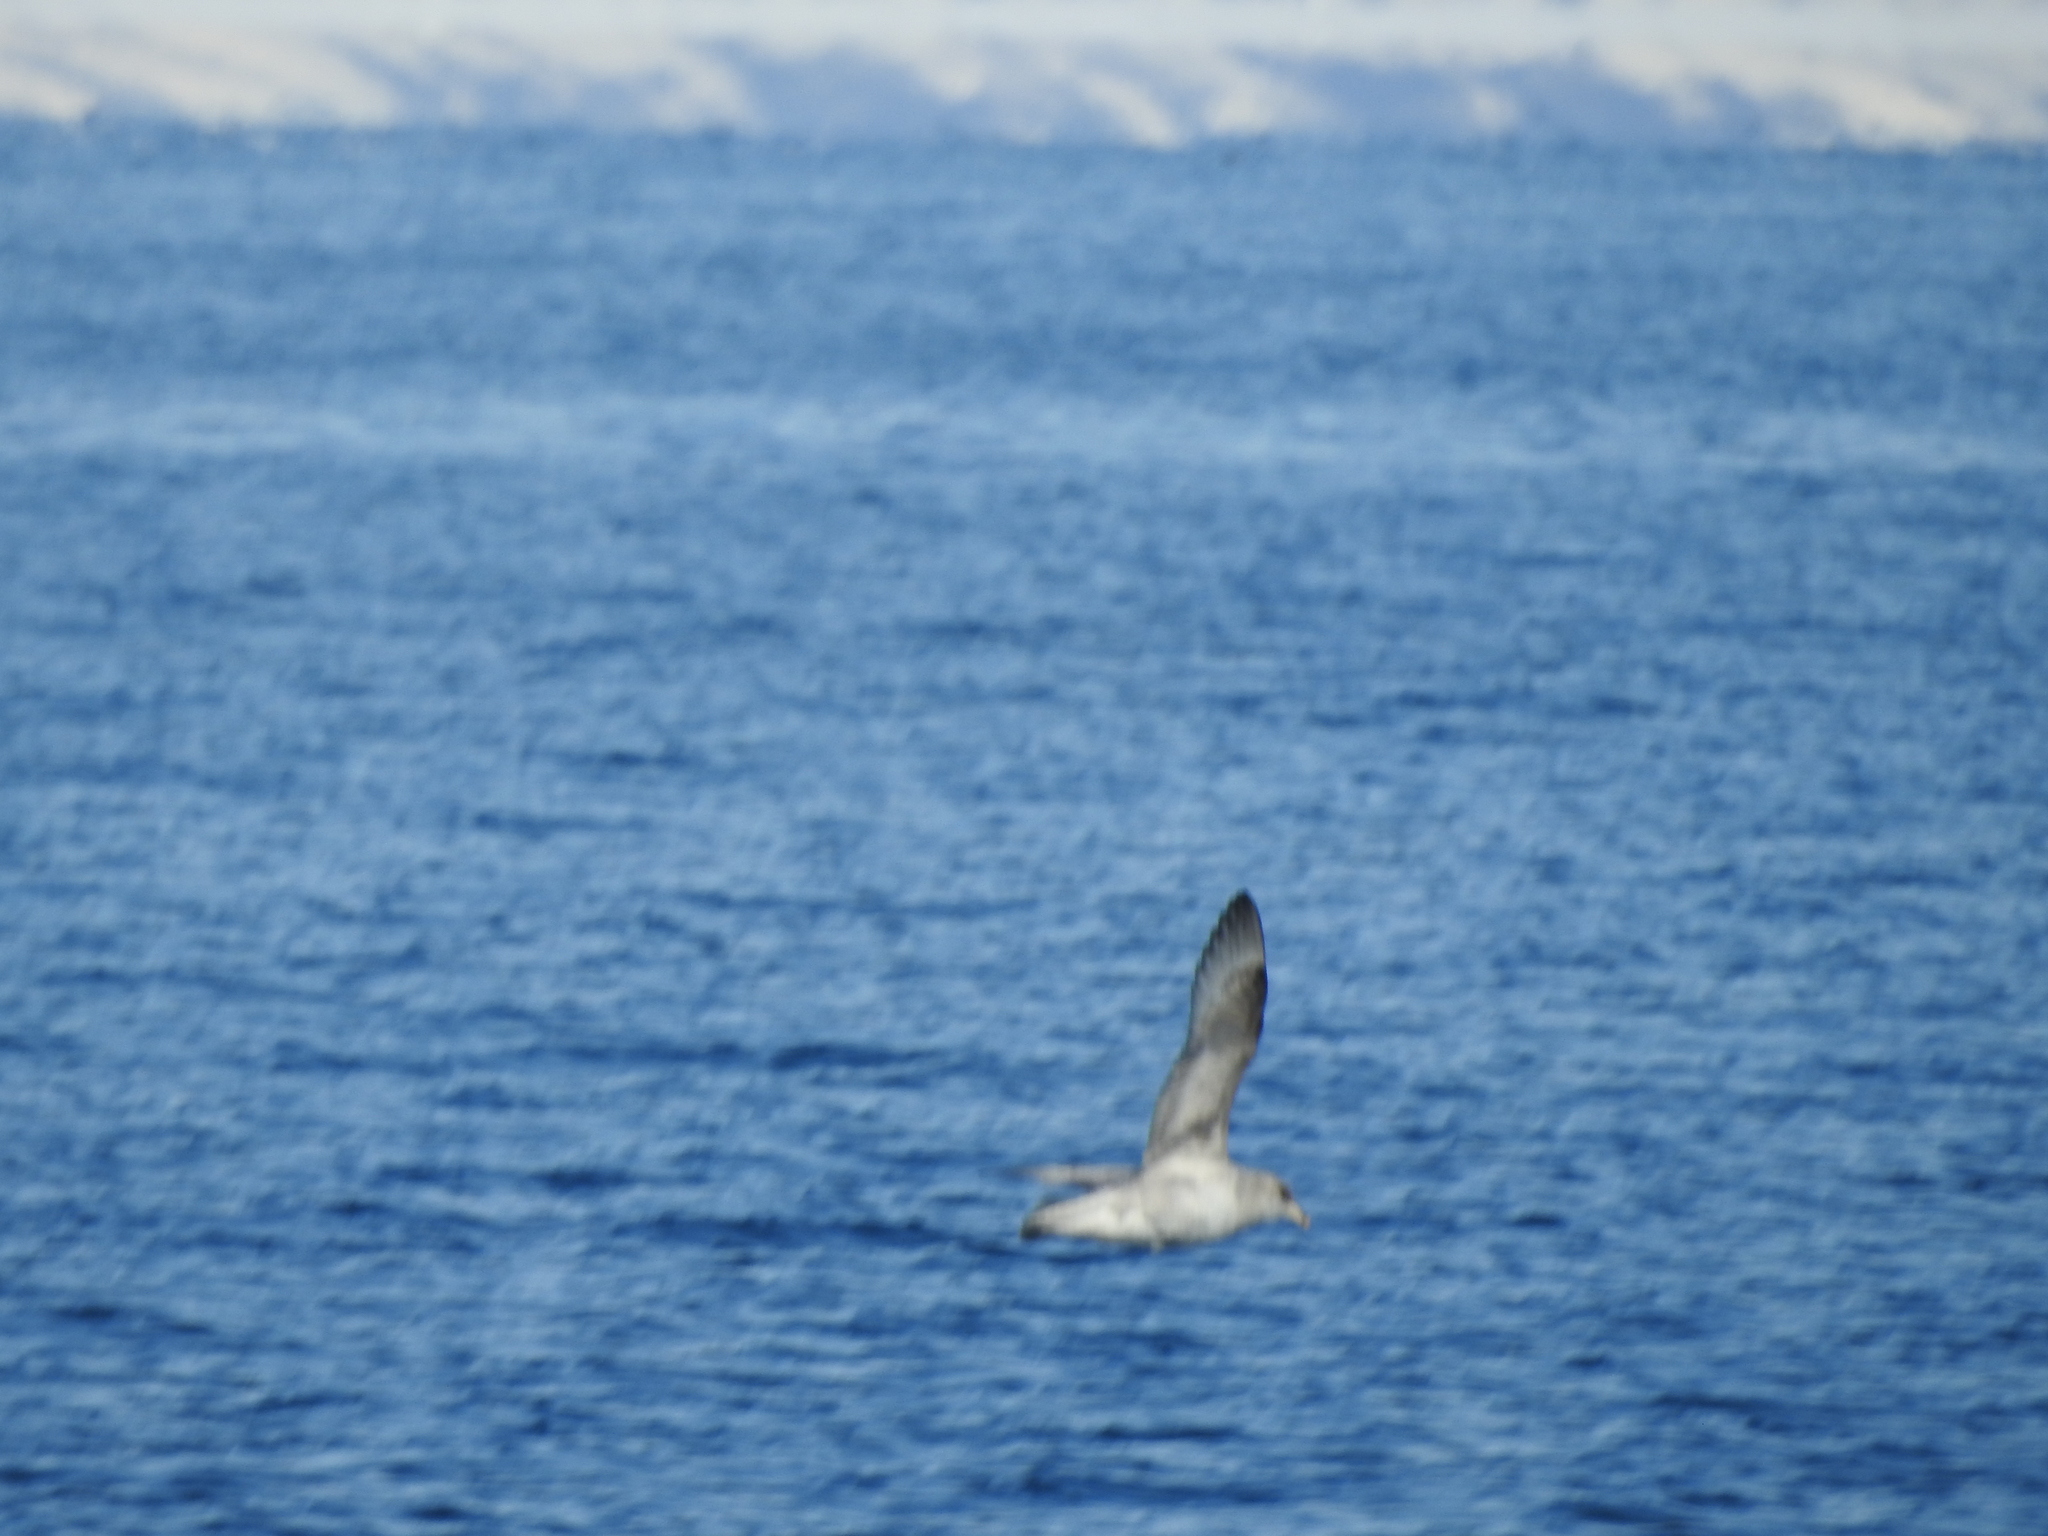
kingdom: Animalia
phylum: Chordata
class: Aves
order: Procellariiformes
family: Procellariidae
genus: Fulmarus
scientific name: Fulmarus glacialis
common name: Northern fulmar
